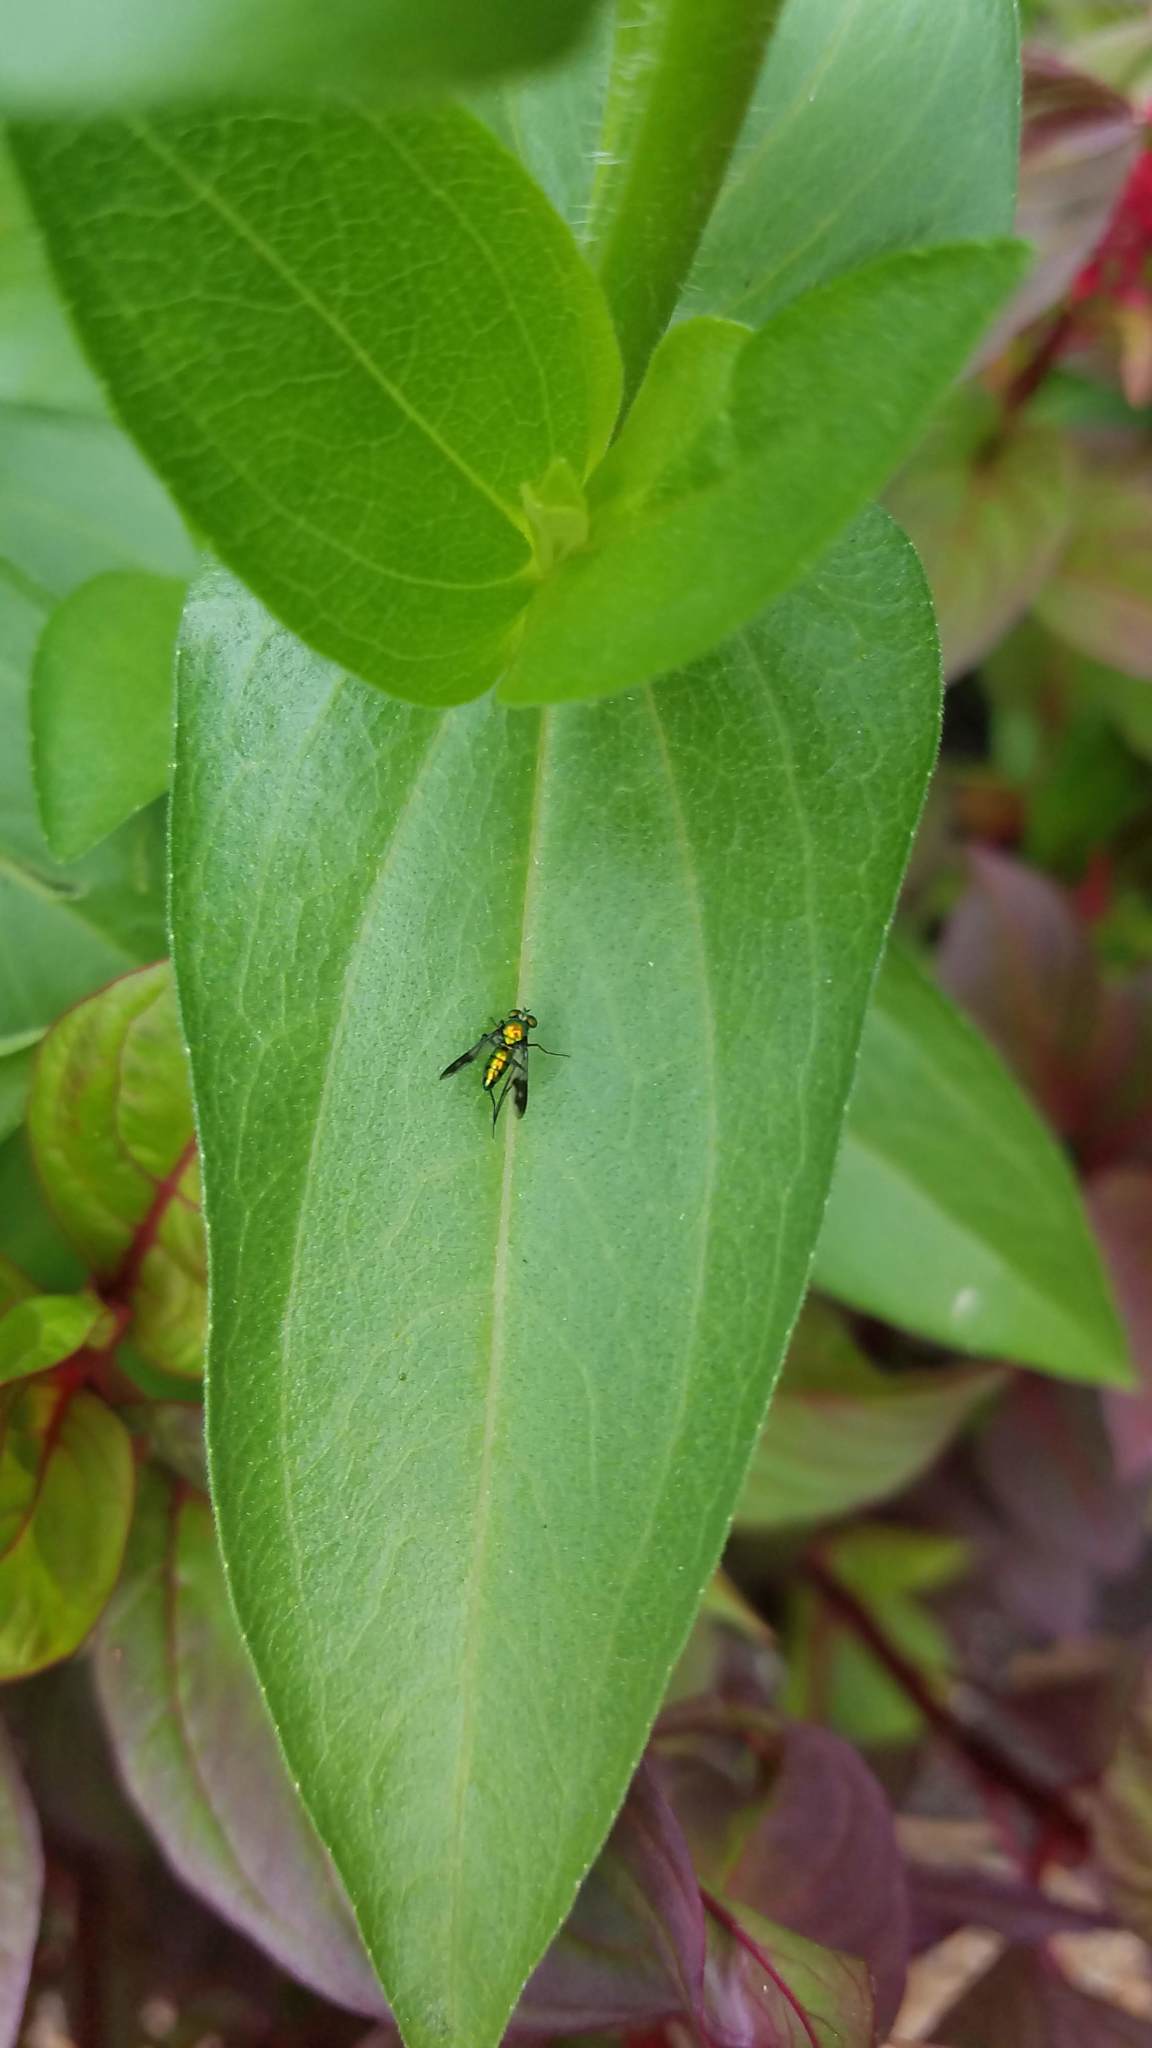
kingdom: Animalia
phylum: Arthropoda
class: Insecta
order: Diptera
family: Dolichopodidae
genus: Condylostylus
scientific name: Condylostylus patibulatus
